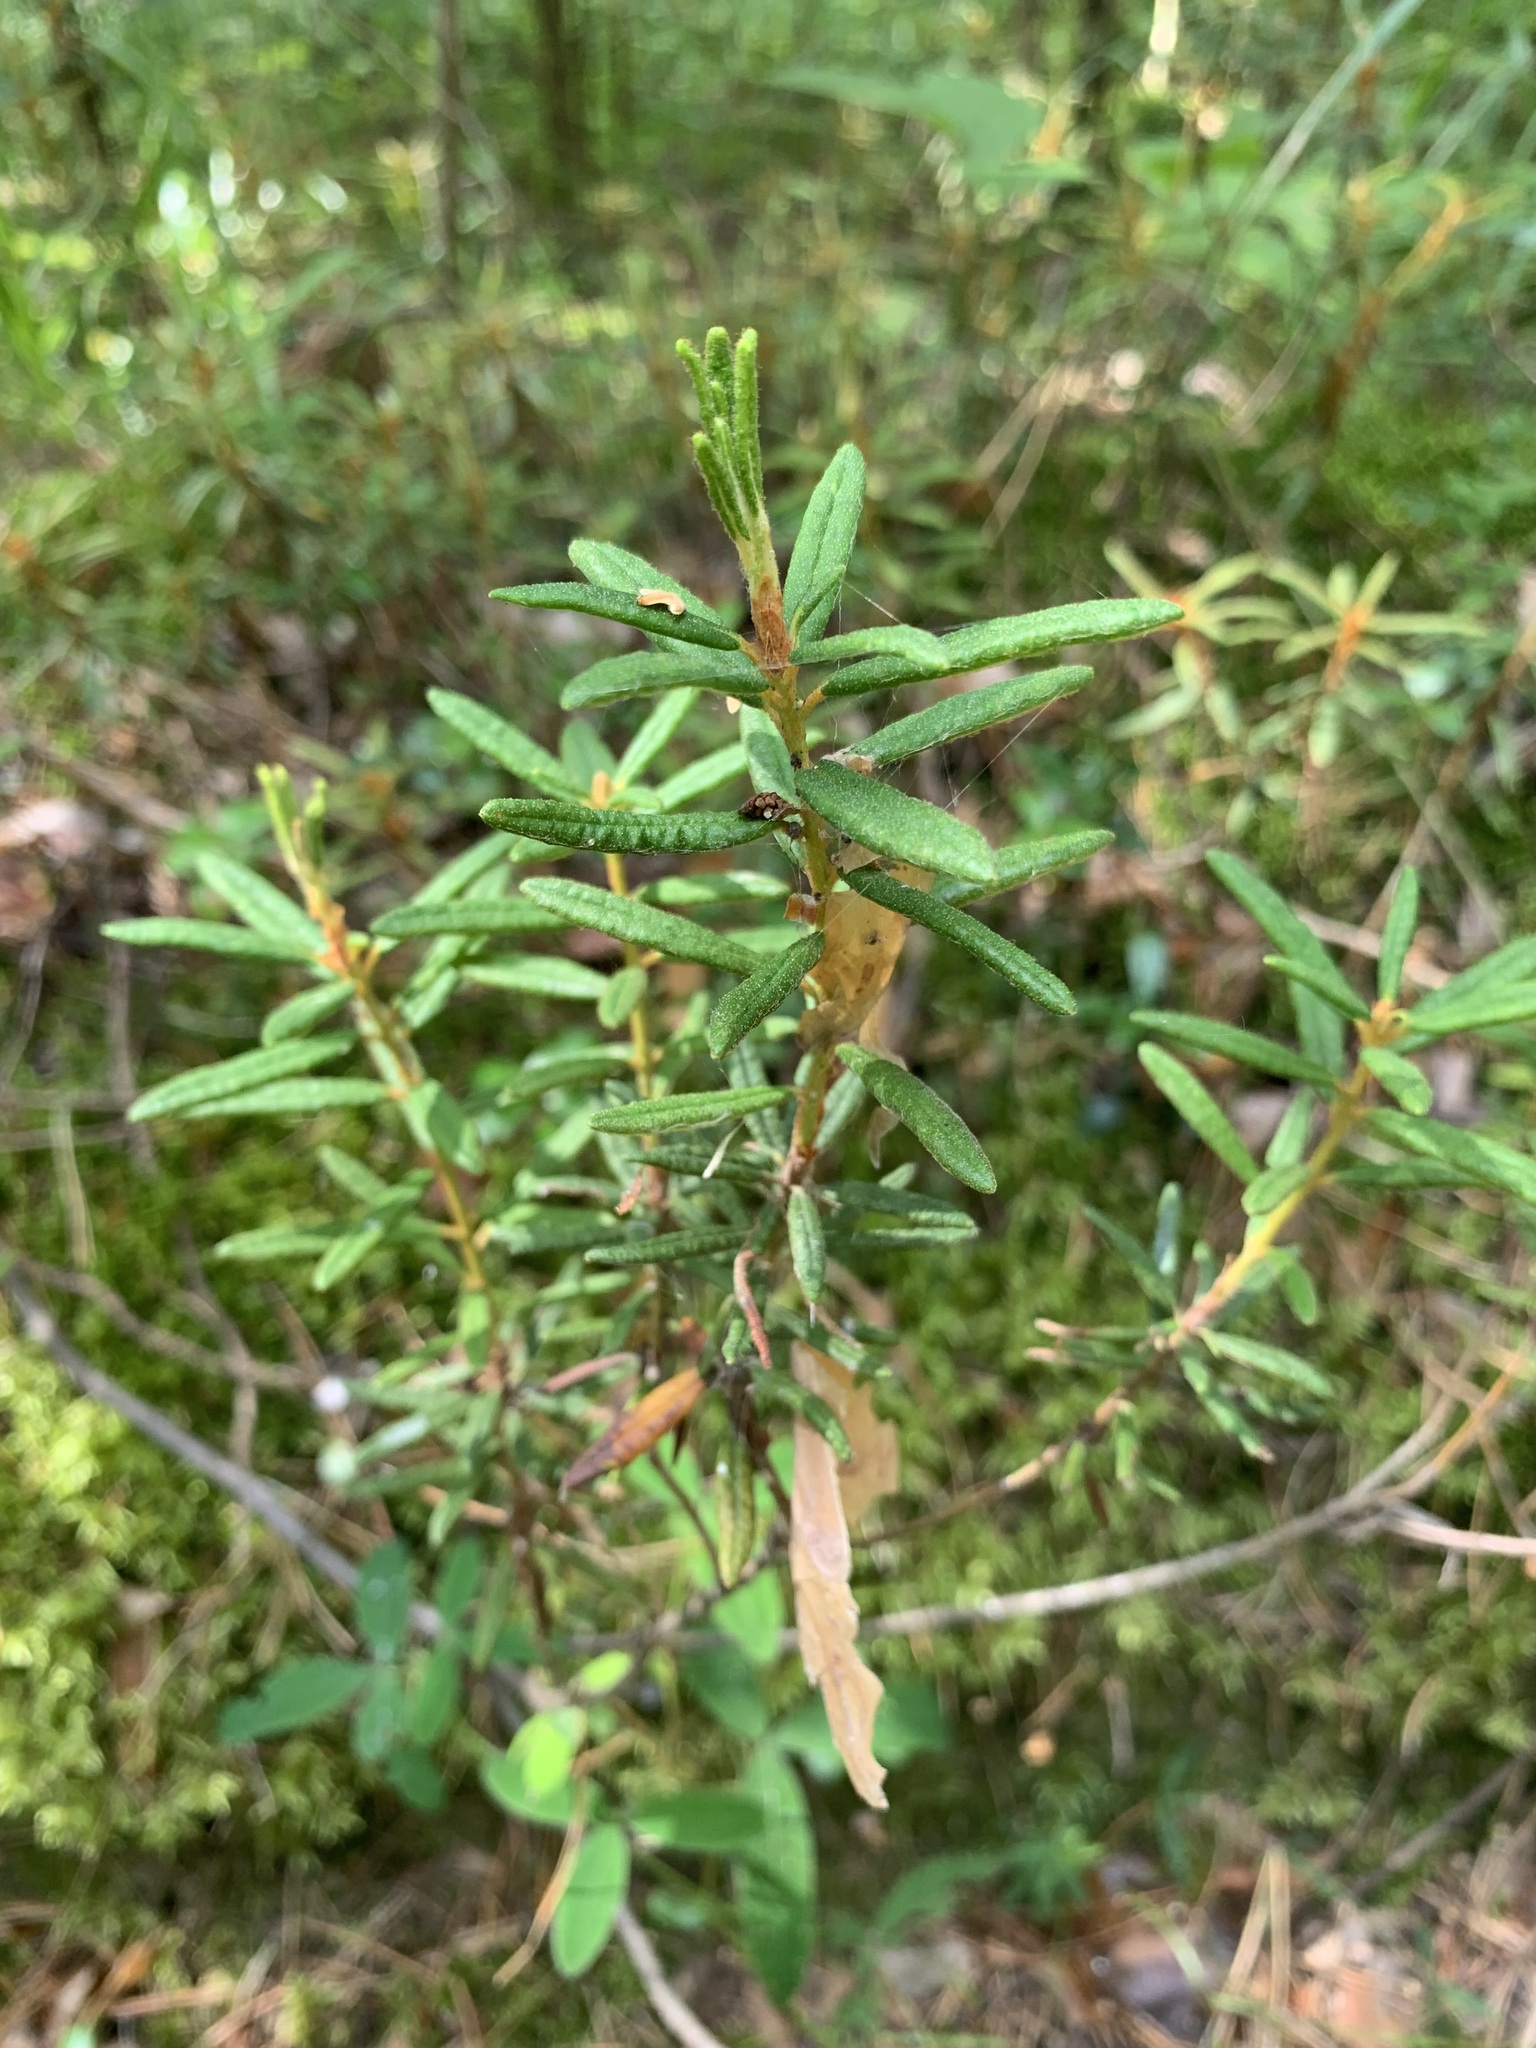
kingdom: Plantae
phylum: Tracheophyta
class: Magnoliopsida
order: Ericales
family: Ericaceae
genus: Rhododendron
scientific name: Rhododendron tomentosum
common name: Marsh labrador tea
